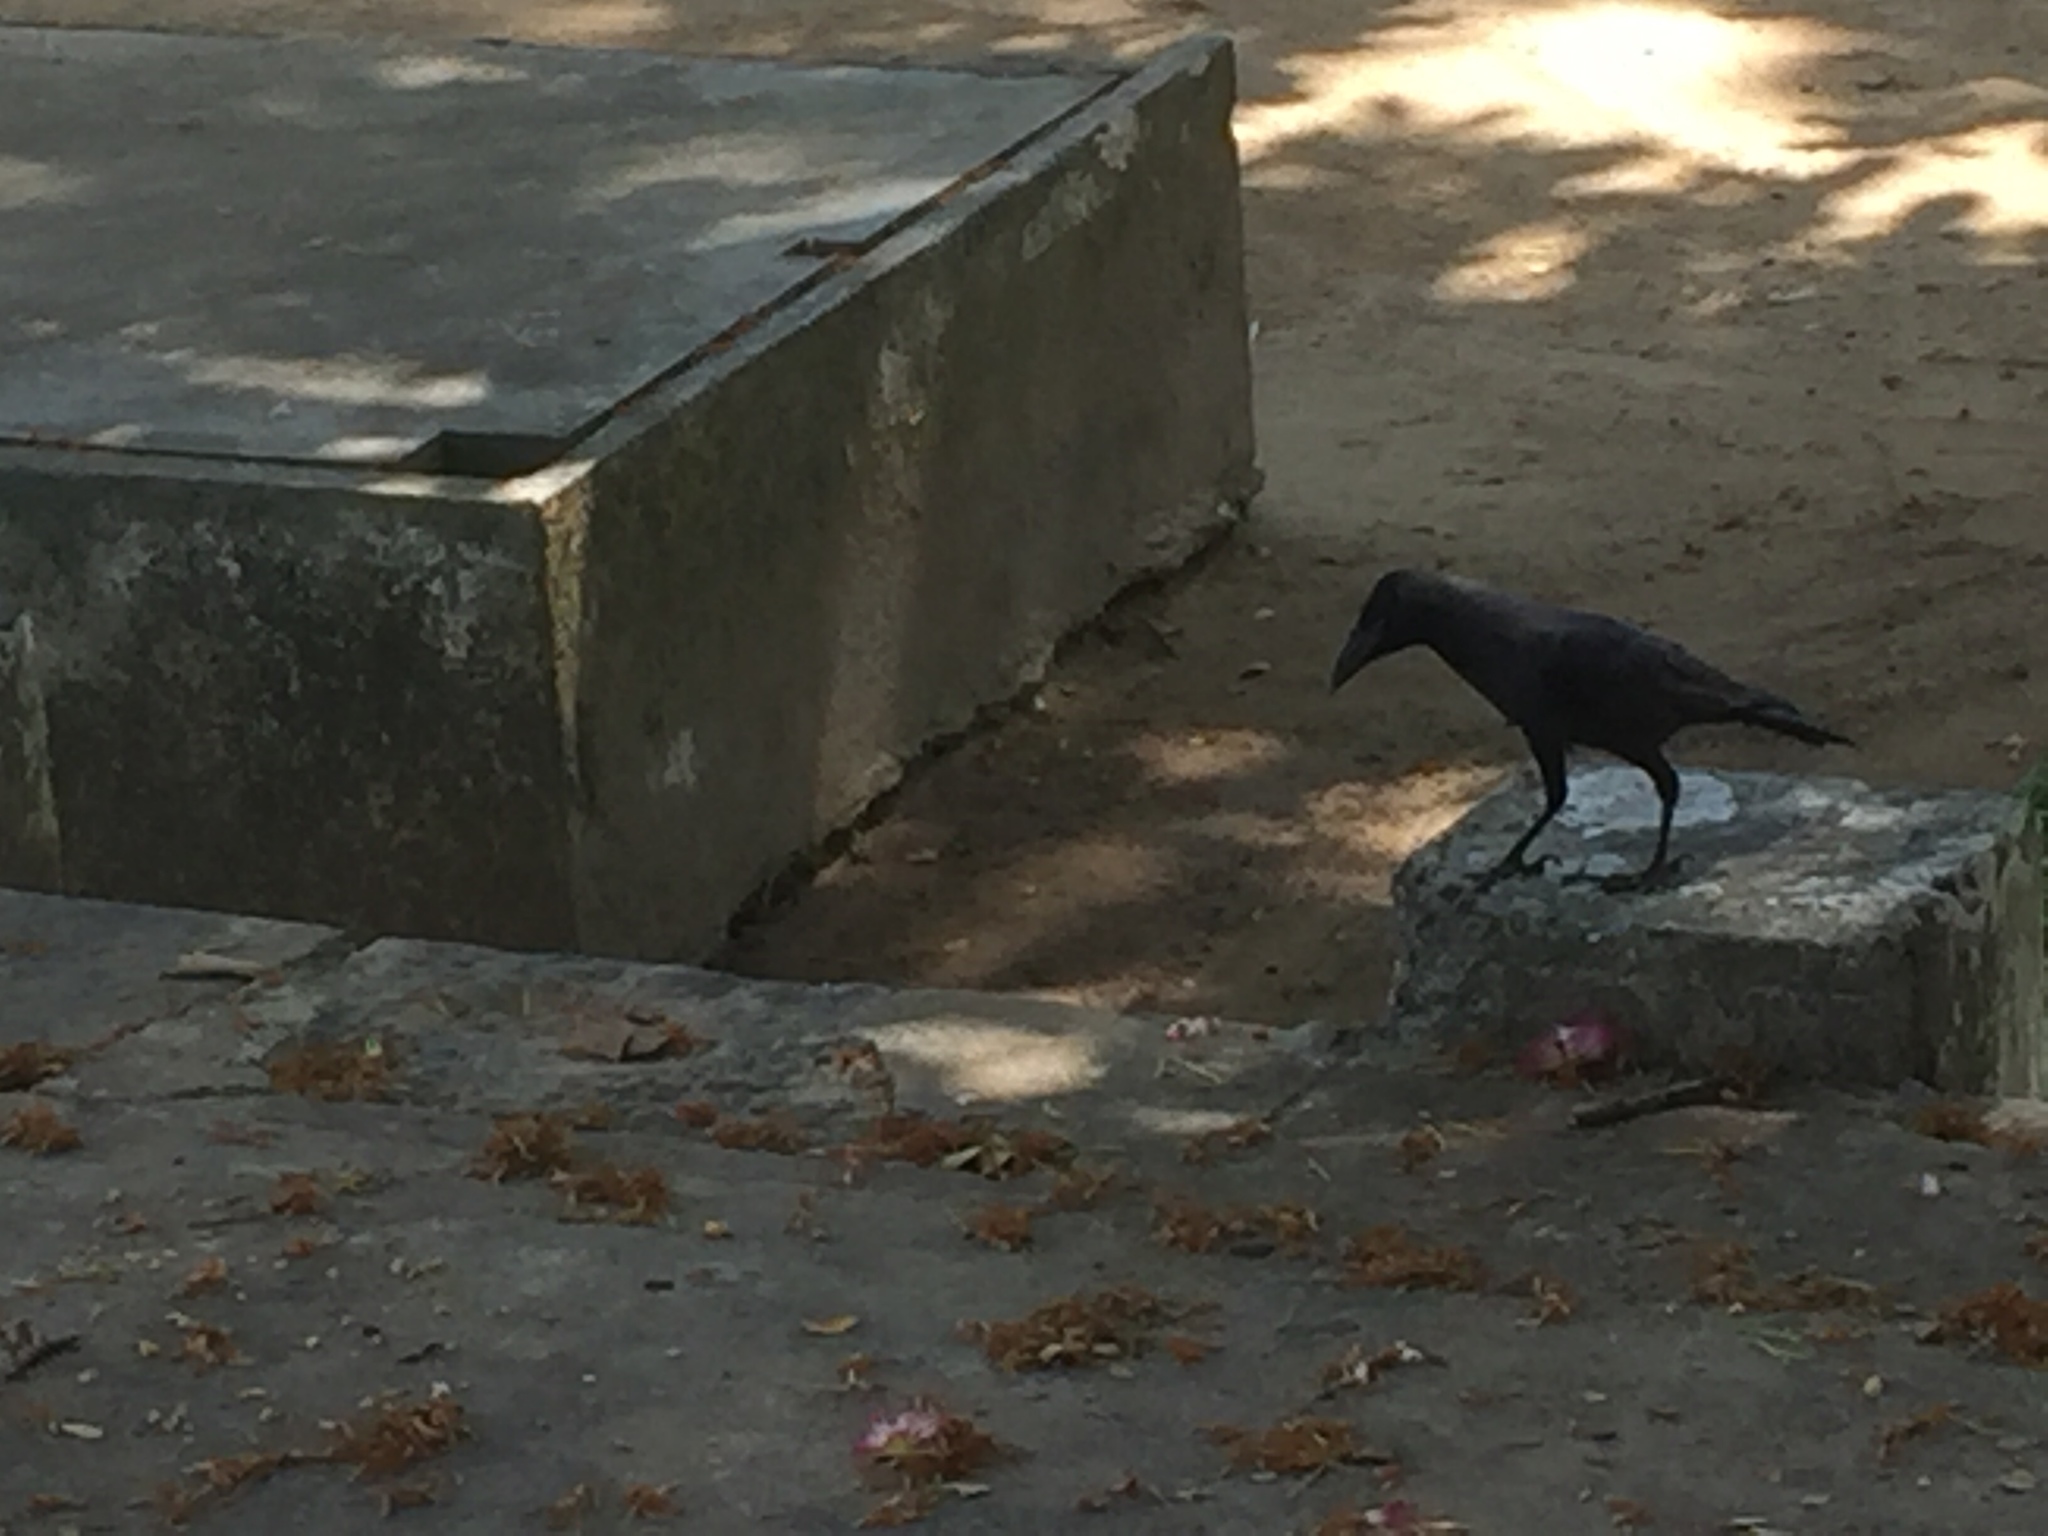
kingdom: Animalia
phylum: Chordata
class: Aves
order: Passeriformes
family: Corvidae
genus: Corvus
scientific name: Corvus splendens
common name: House crow
